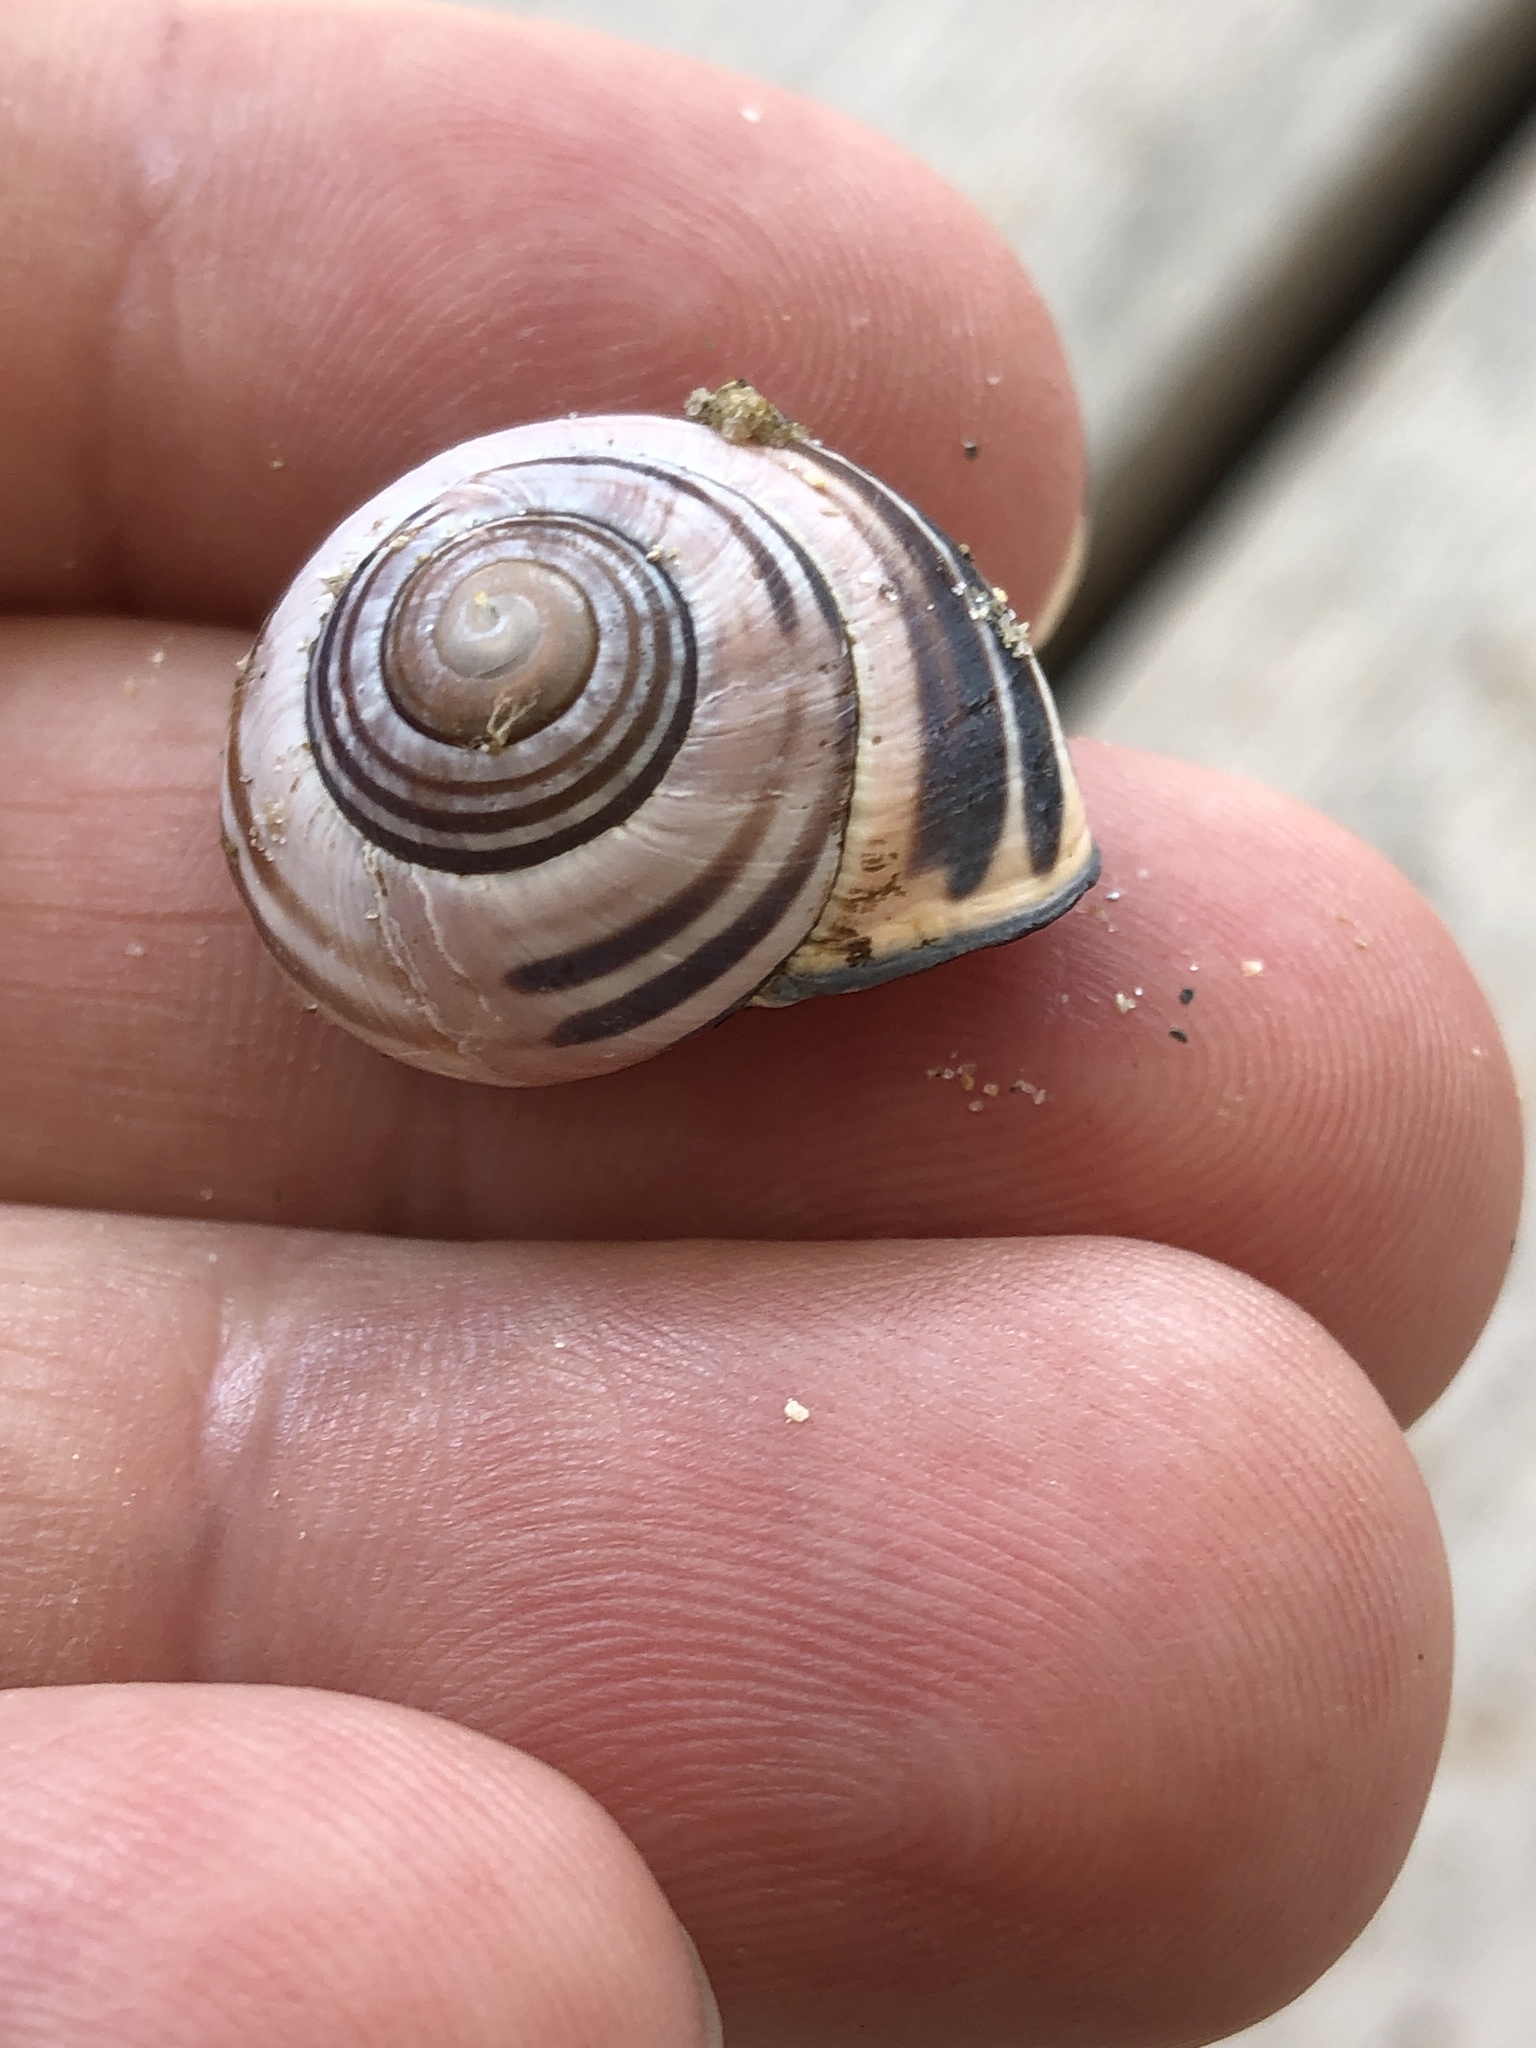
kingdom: Animalia
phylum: Mollusca
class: Gastropoda
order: Stylommatophora
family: Helicidae
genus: Cepaea
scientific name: Cepaea nemoralis
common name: Grovesnail
